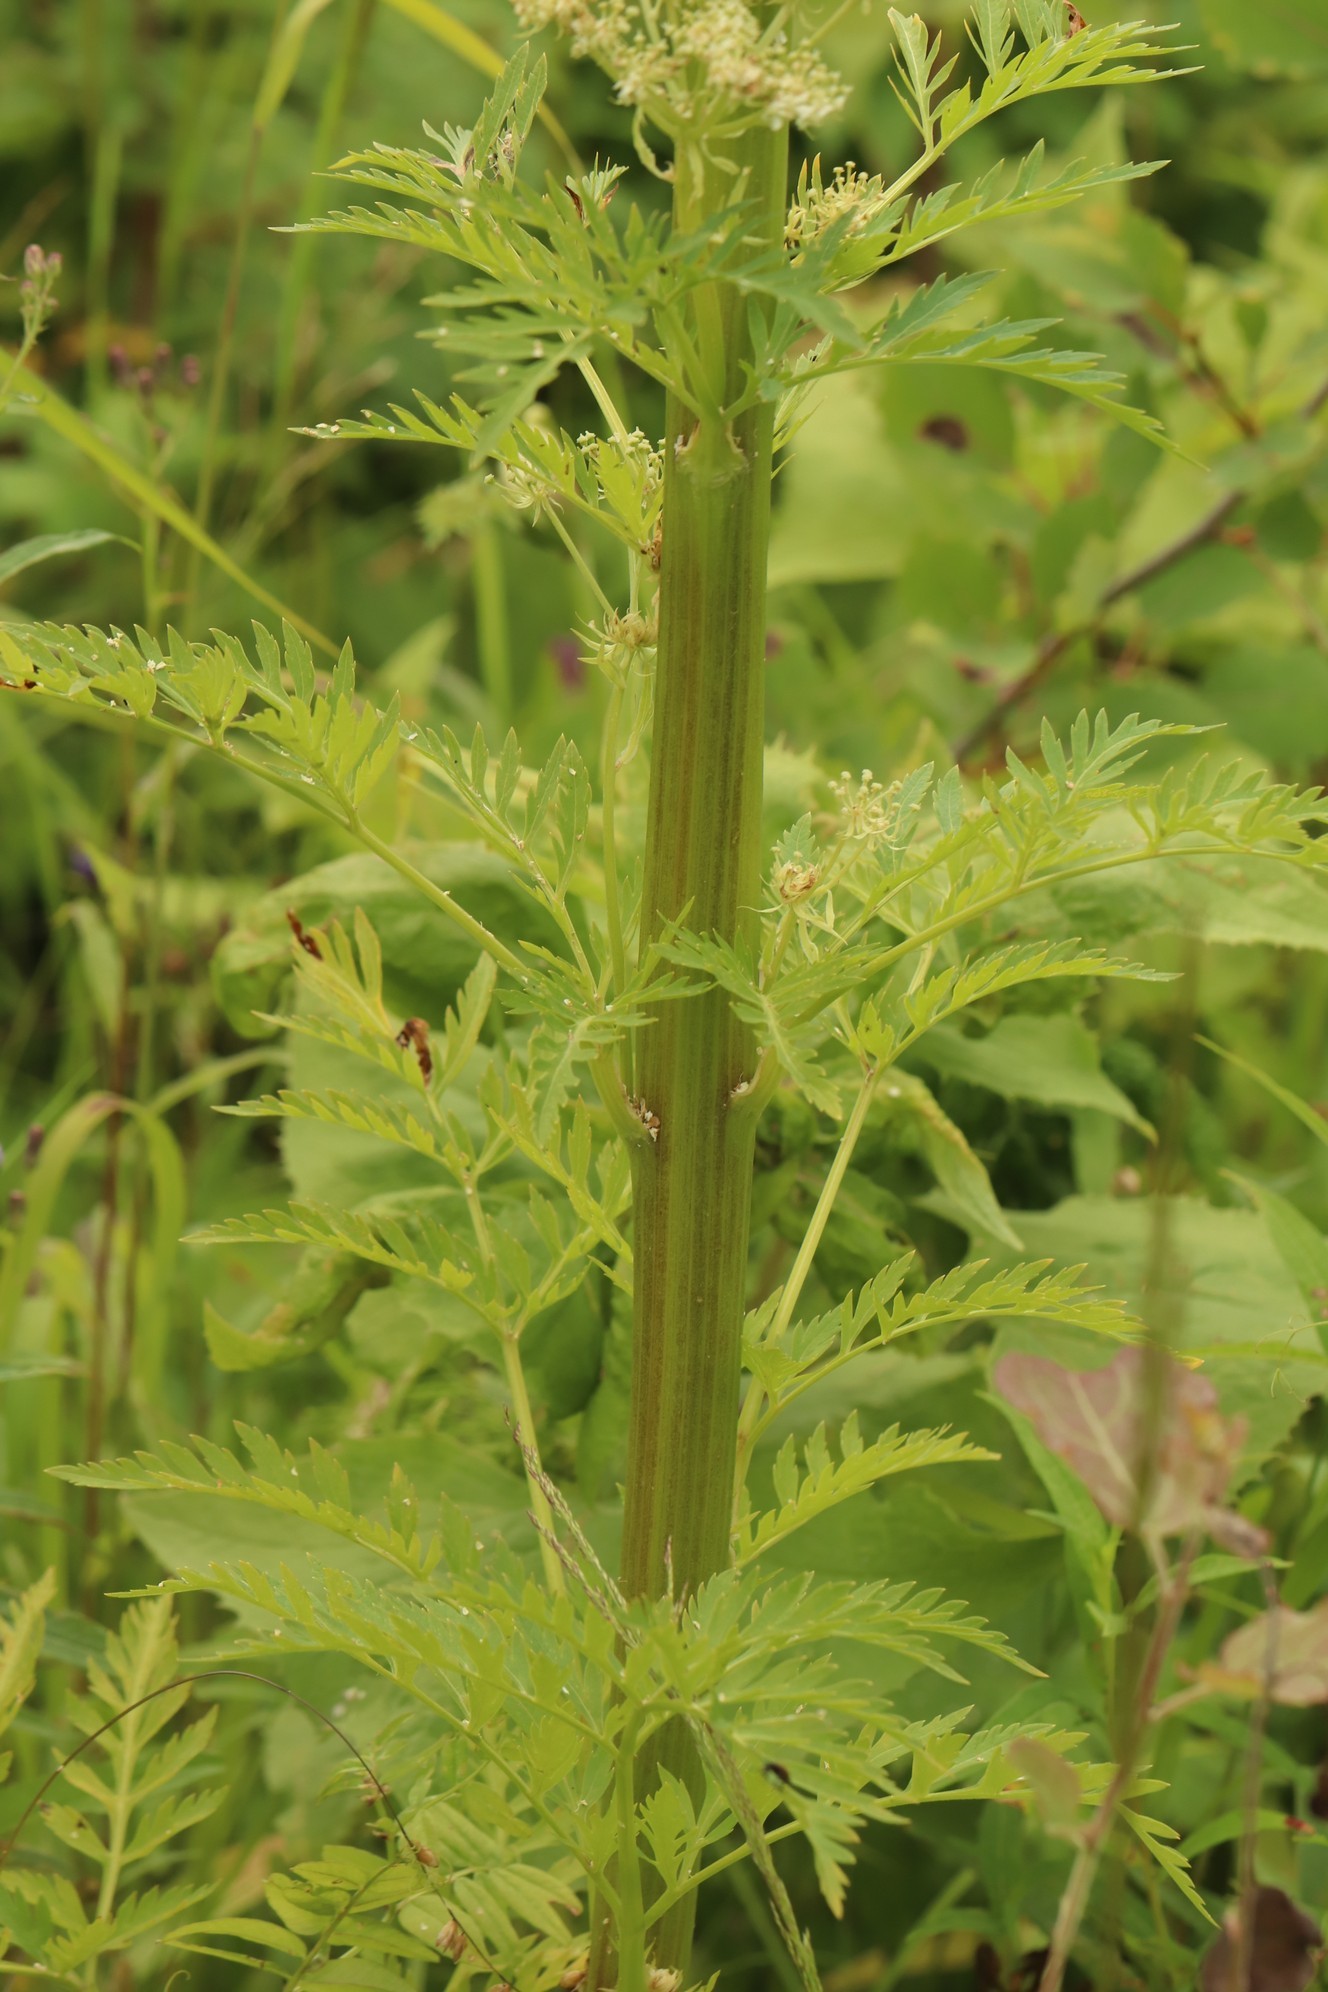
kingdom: Plantae
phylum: Tracheophyta
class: Magnoliopsida
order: Apiales
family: Apiaceae
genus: Pleurospermum
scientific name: Pleurospermum uralense
